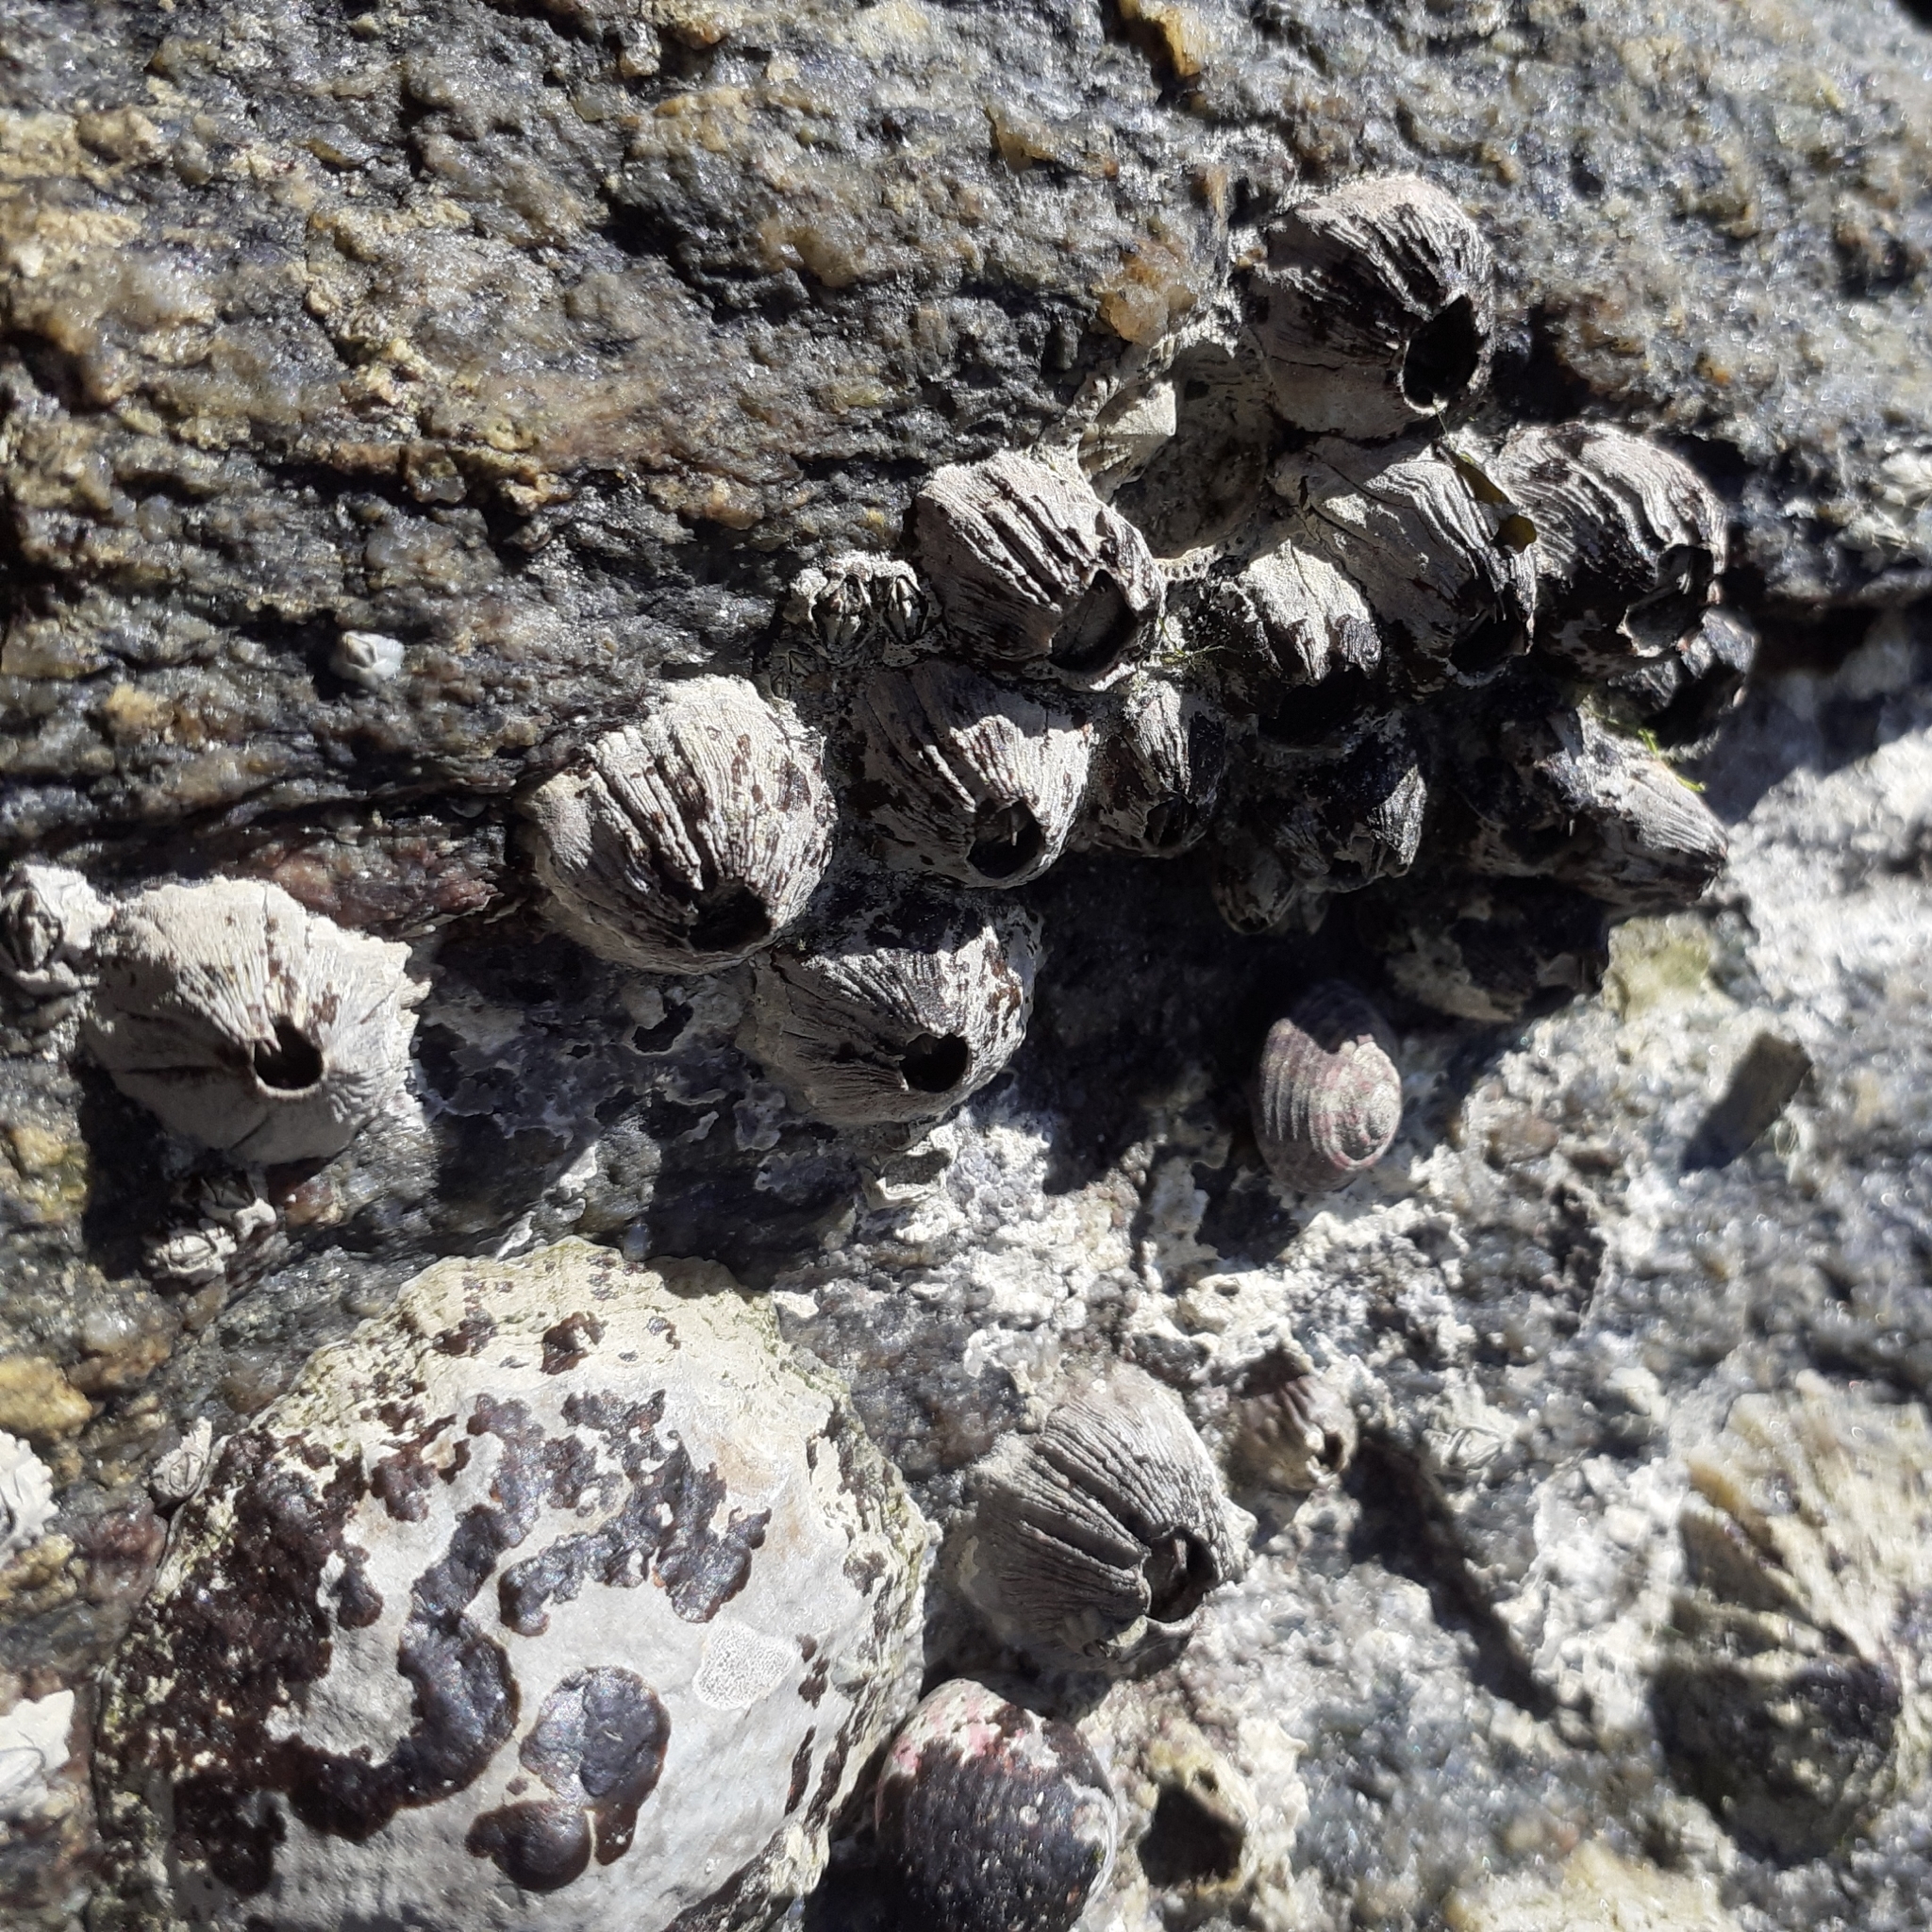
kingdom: Animalia
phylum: Arthropoda
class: Maxillopoda
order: Sessilia
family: Balanidae
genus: Perforatus
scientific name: Perforatus perforatus
